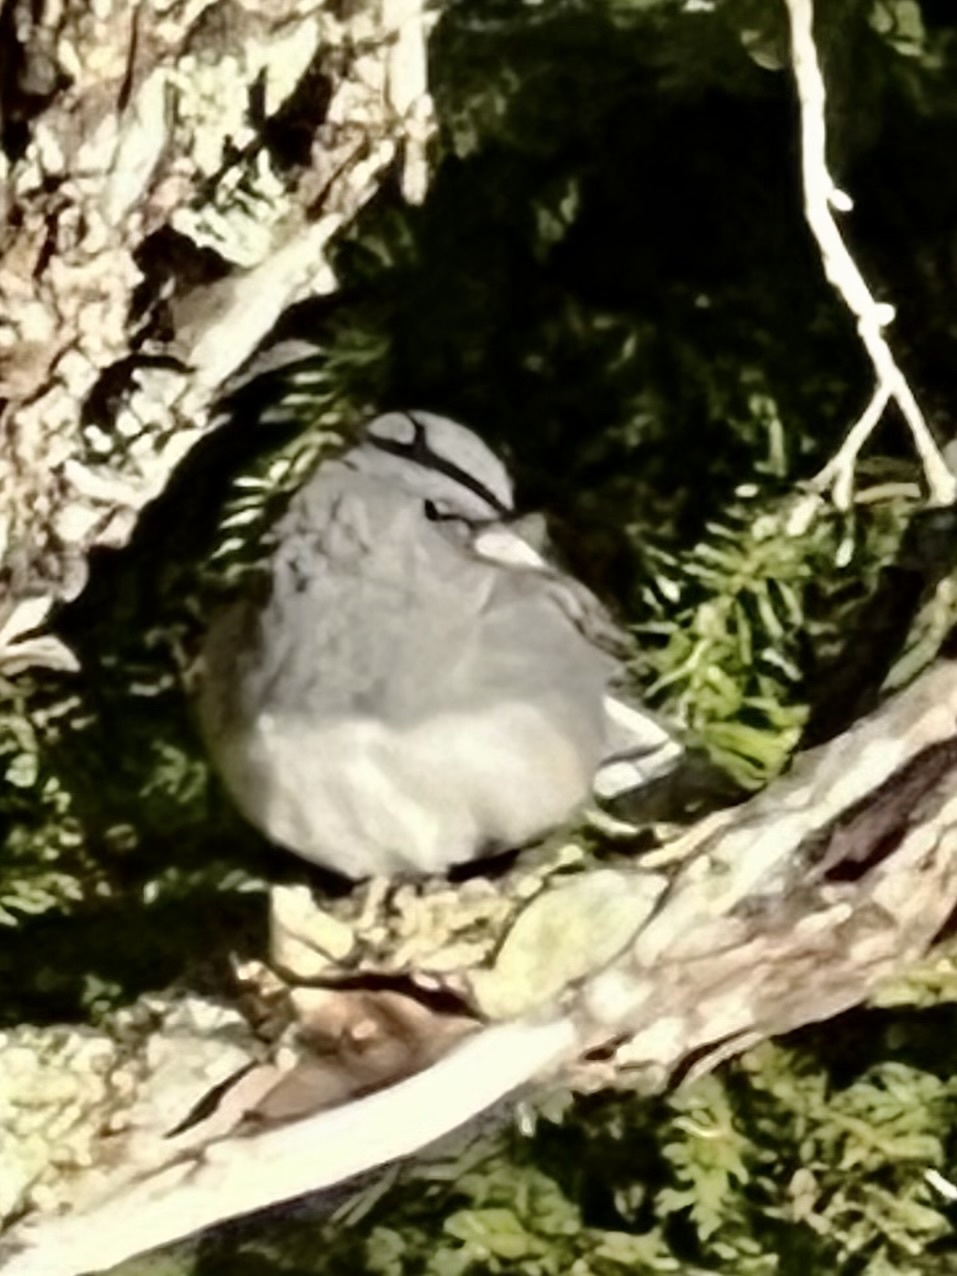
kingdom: Animalia
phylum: Chordata
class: Aves
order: Passeriformes
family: Passerellidae
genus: Junco
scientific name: Junco hyemalis
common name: Dark-eyed junco
